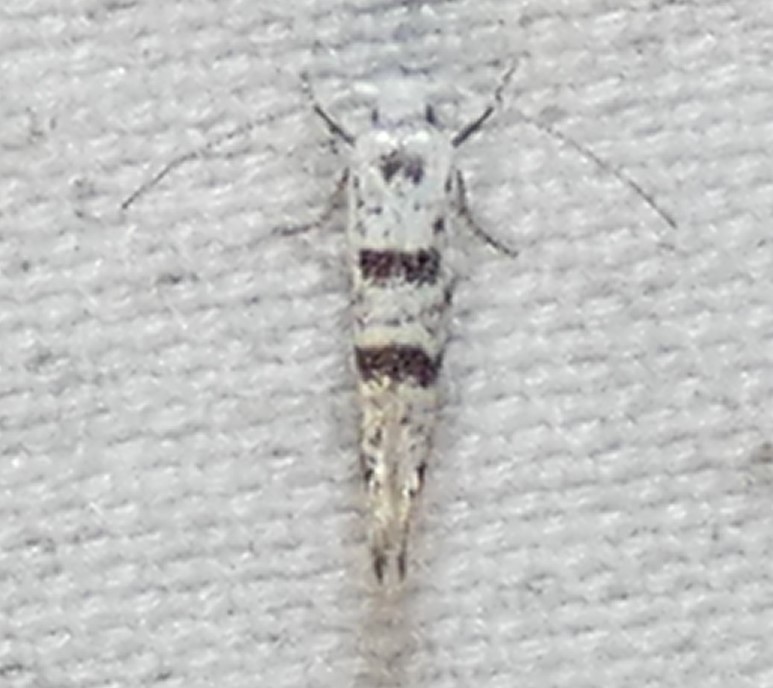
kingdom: Animalia
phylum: Arthropoda
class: Insecta
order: Lepidoptera
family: Argyresthiidae
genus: Argyresthia
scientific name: Argyresthia thuiella
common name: Arborvitae leafminer
